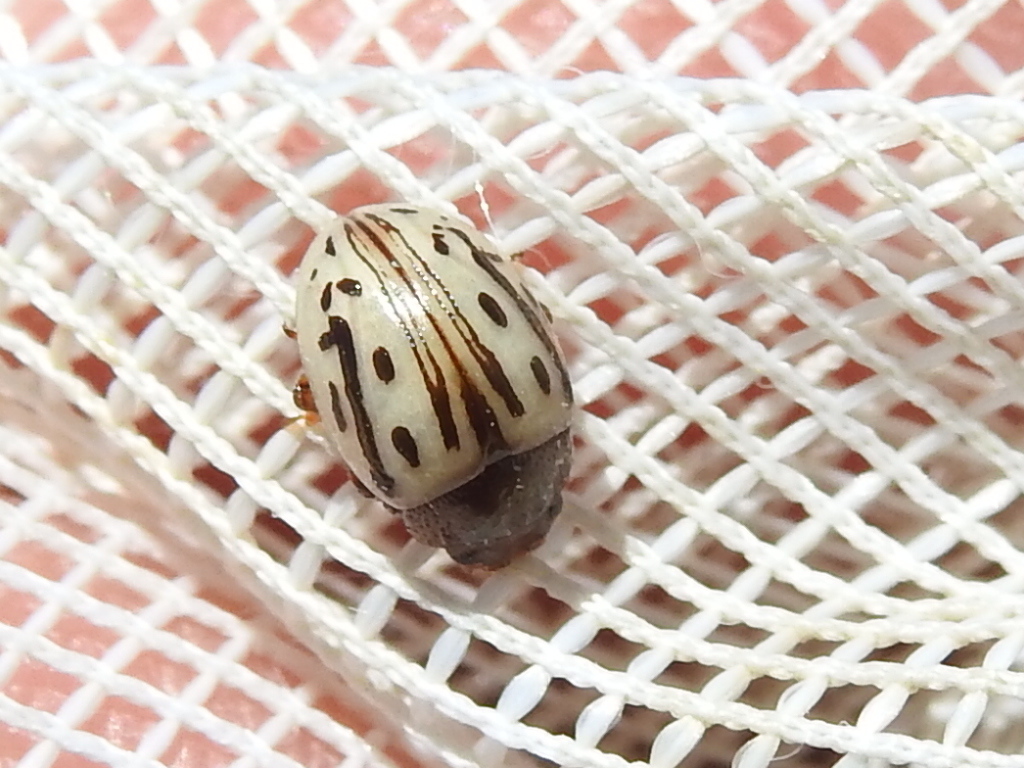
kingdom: Animalia
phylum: Arthropoda
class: Insecta
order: Coleoptera
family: Chrysomelidae
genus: Calligrapha
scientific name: Calligrapha
